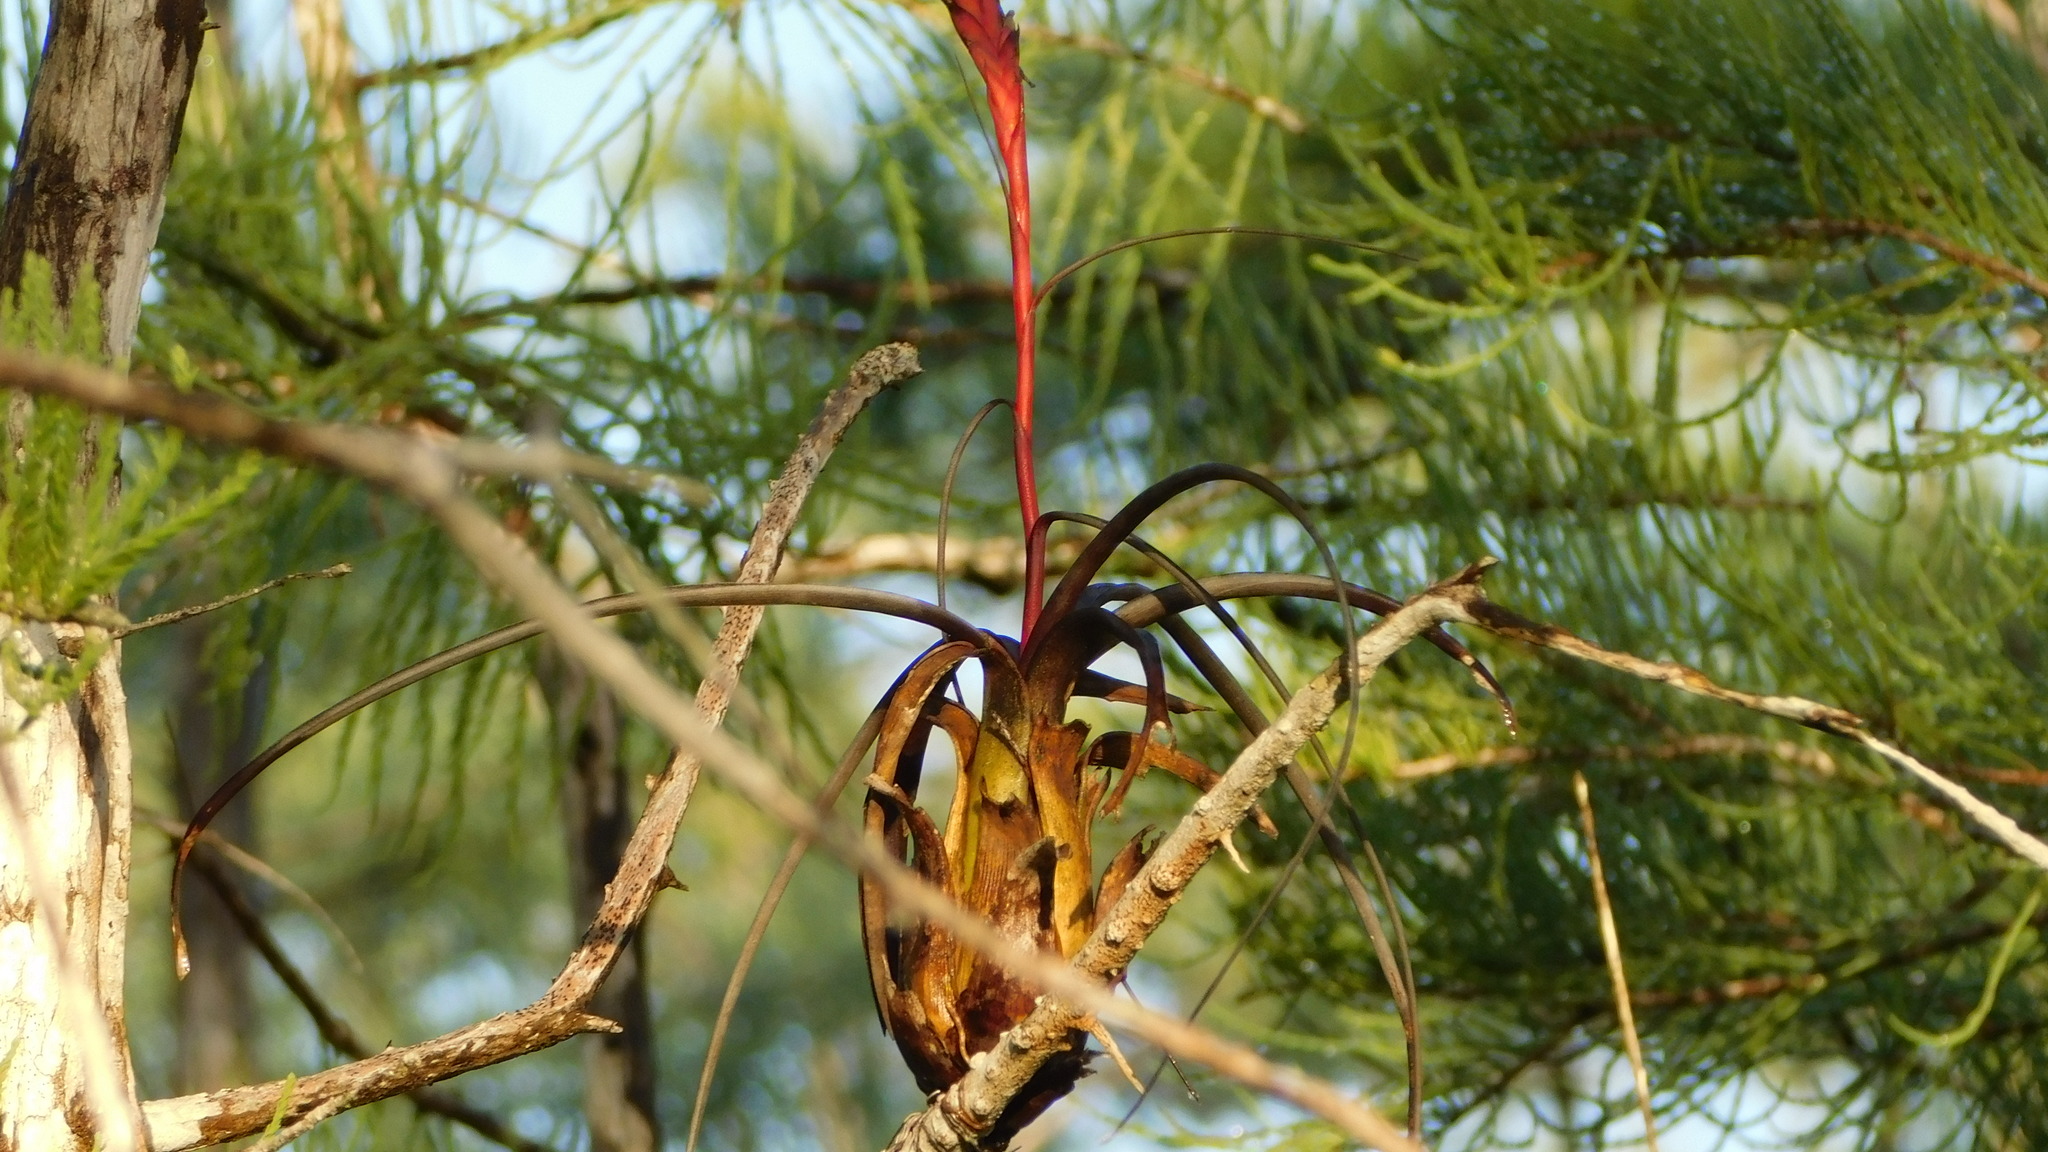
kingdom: Plantae
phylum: Tracheophyta
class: Liliopsida
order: Poales
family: Bromeliaceae
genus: Tillandsia
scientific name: Tillandsia balbisiana
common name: Northern needleleaf
